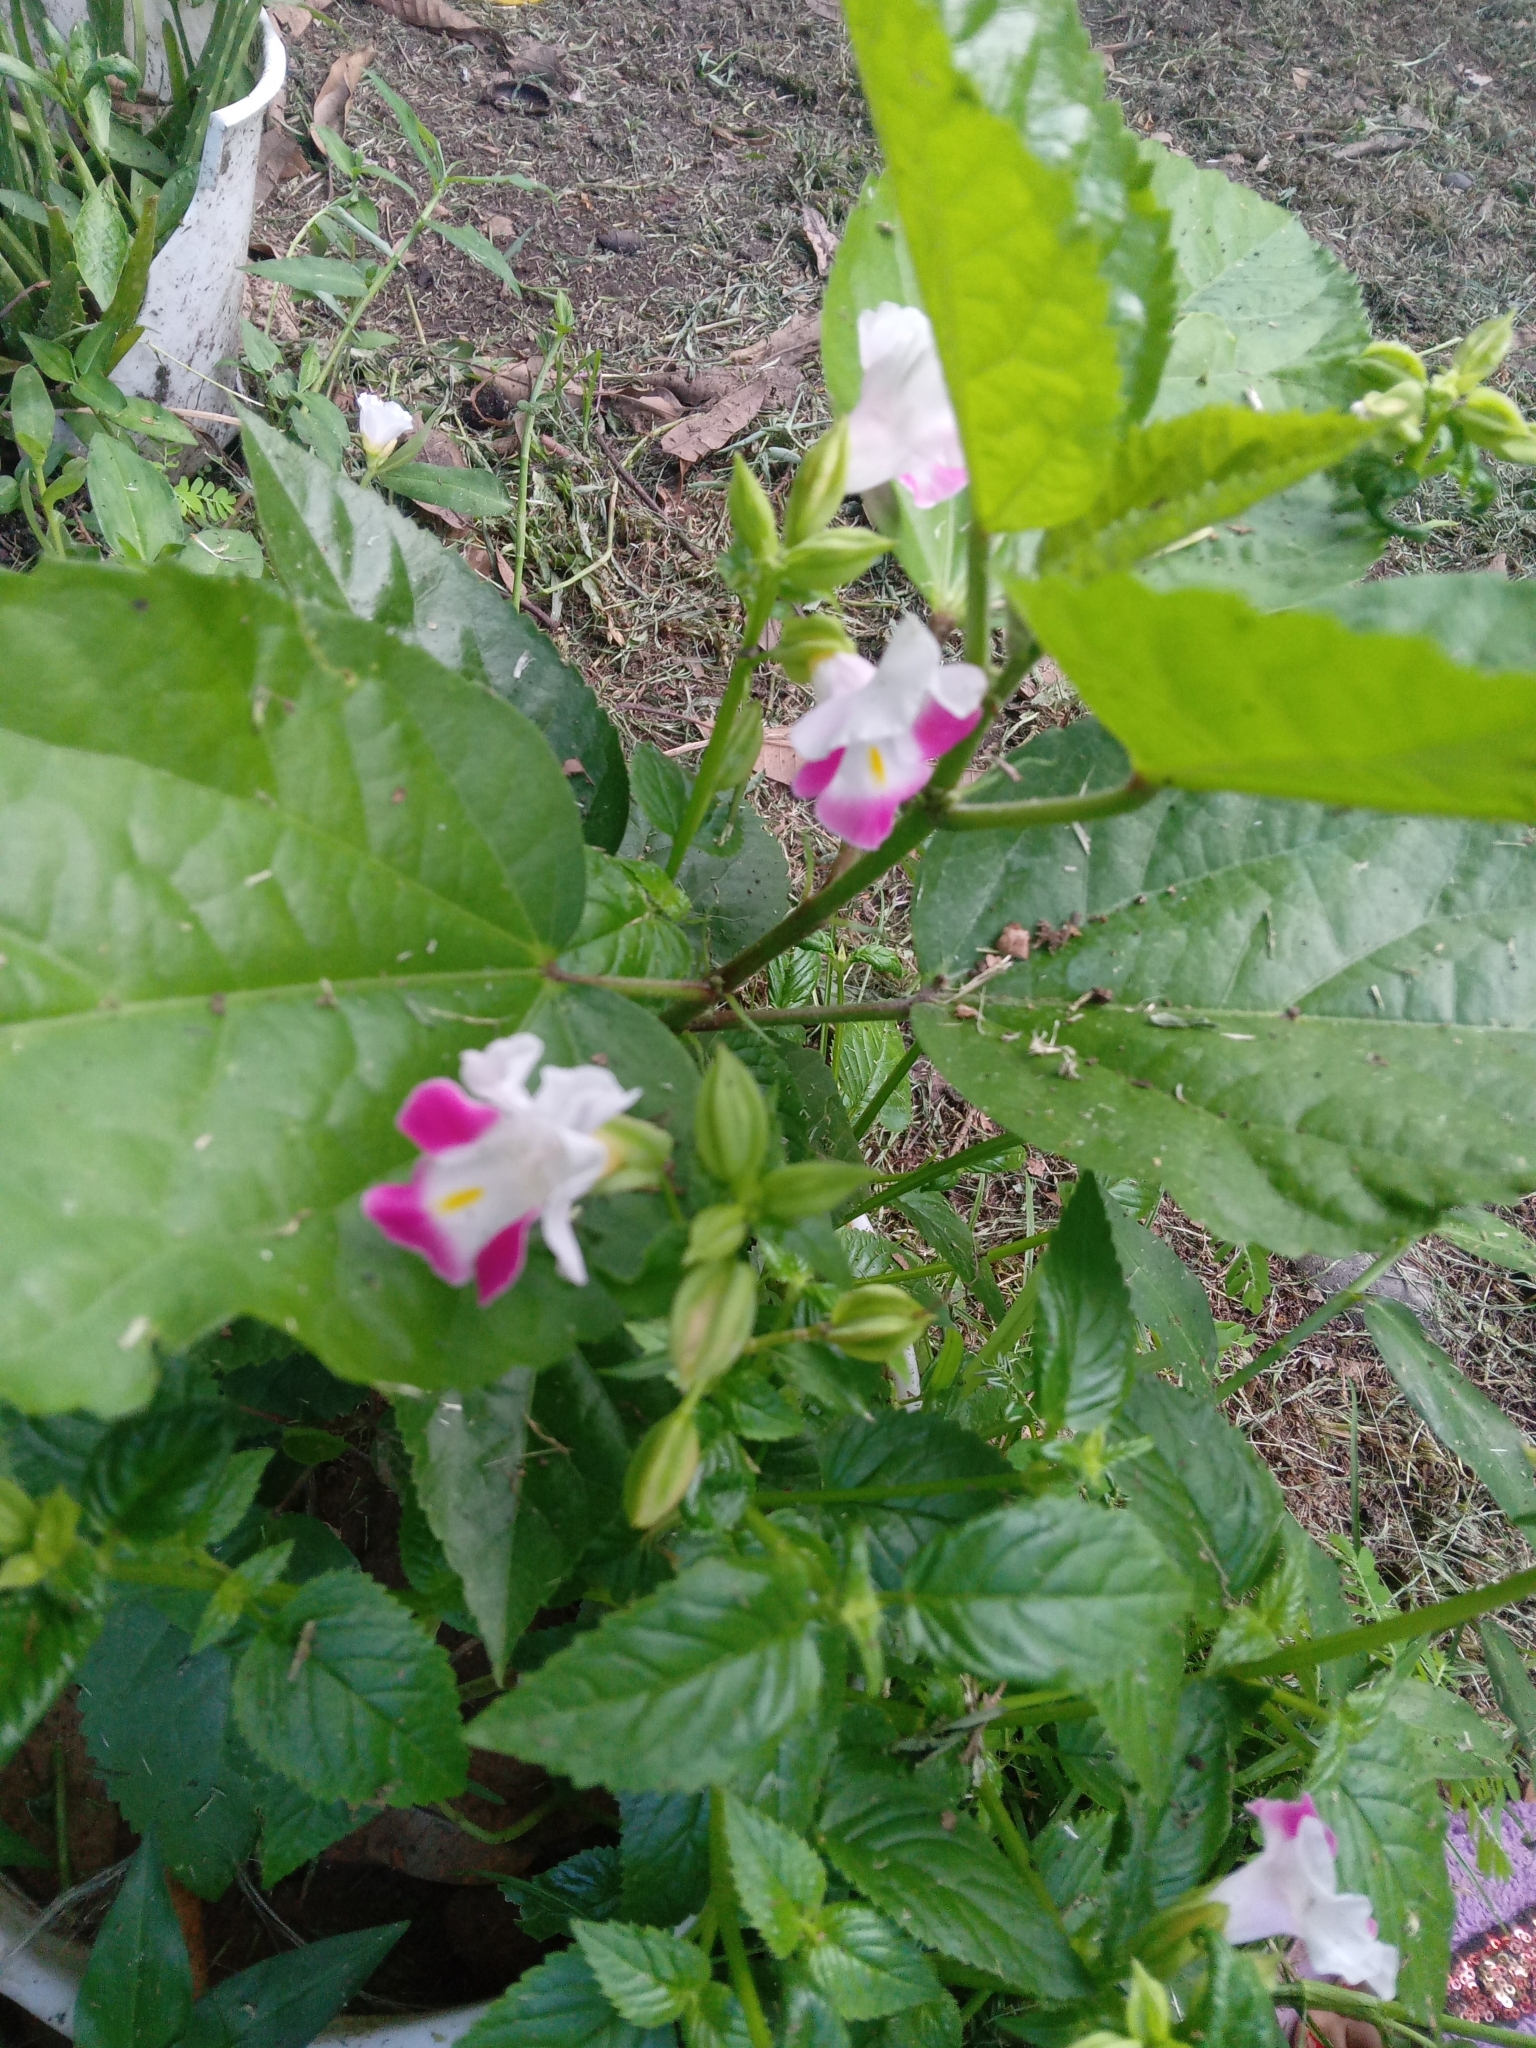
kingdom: Plantae
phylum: Tracheophyta
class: Magnoliopsida
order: Lamiales
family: Linderniaceae
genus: Torenia
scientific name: Torenia fournieri
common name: Bluewings
